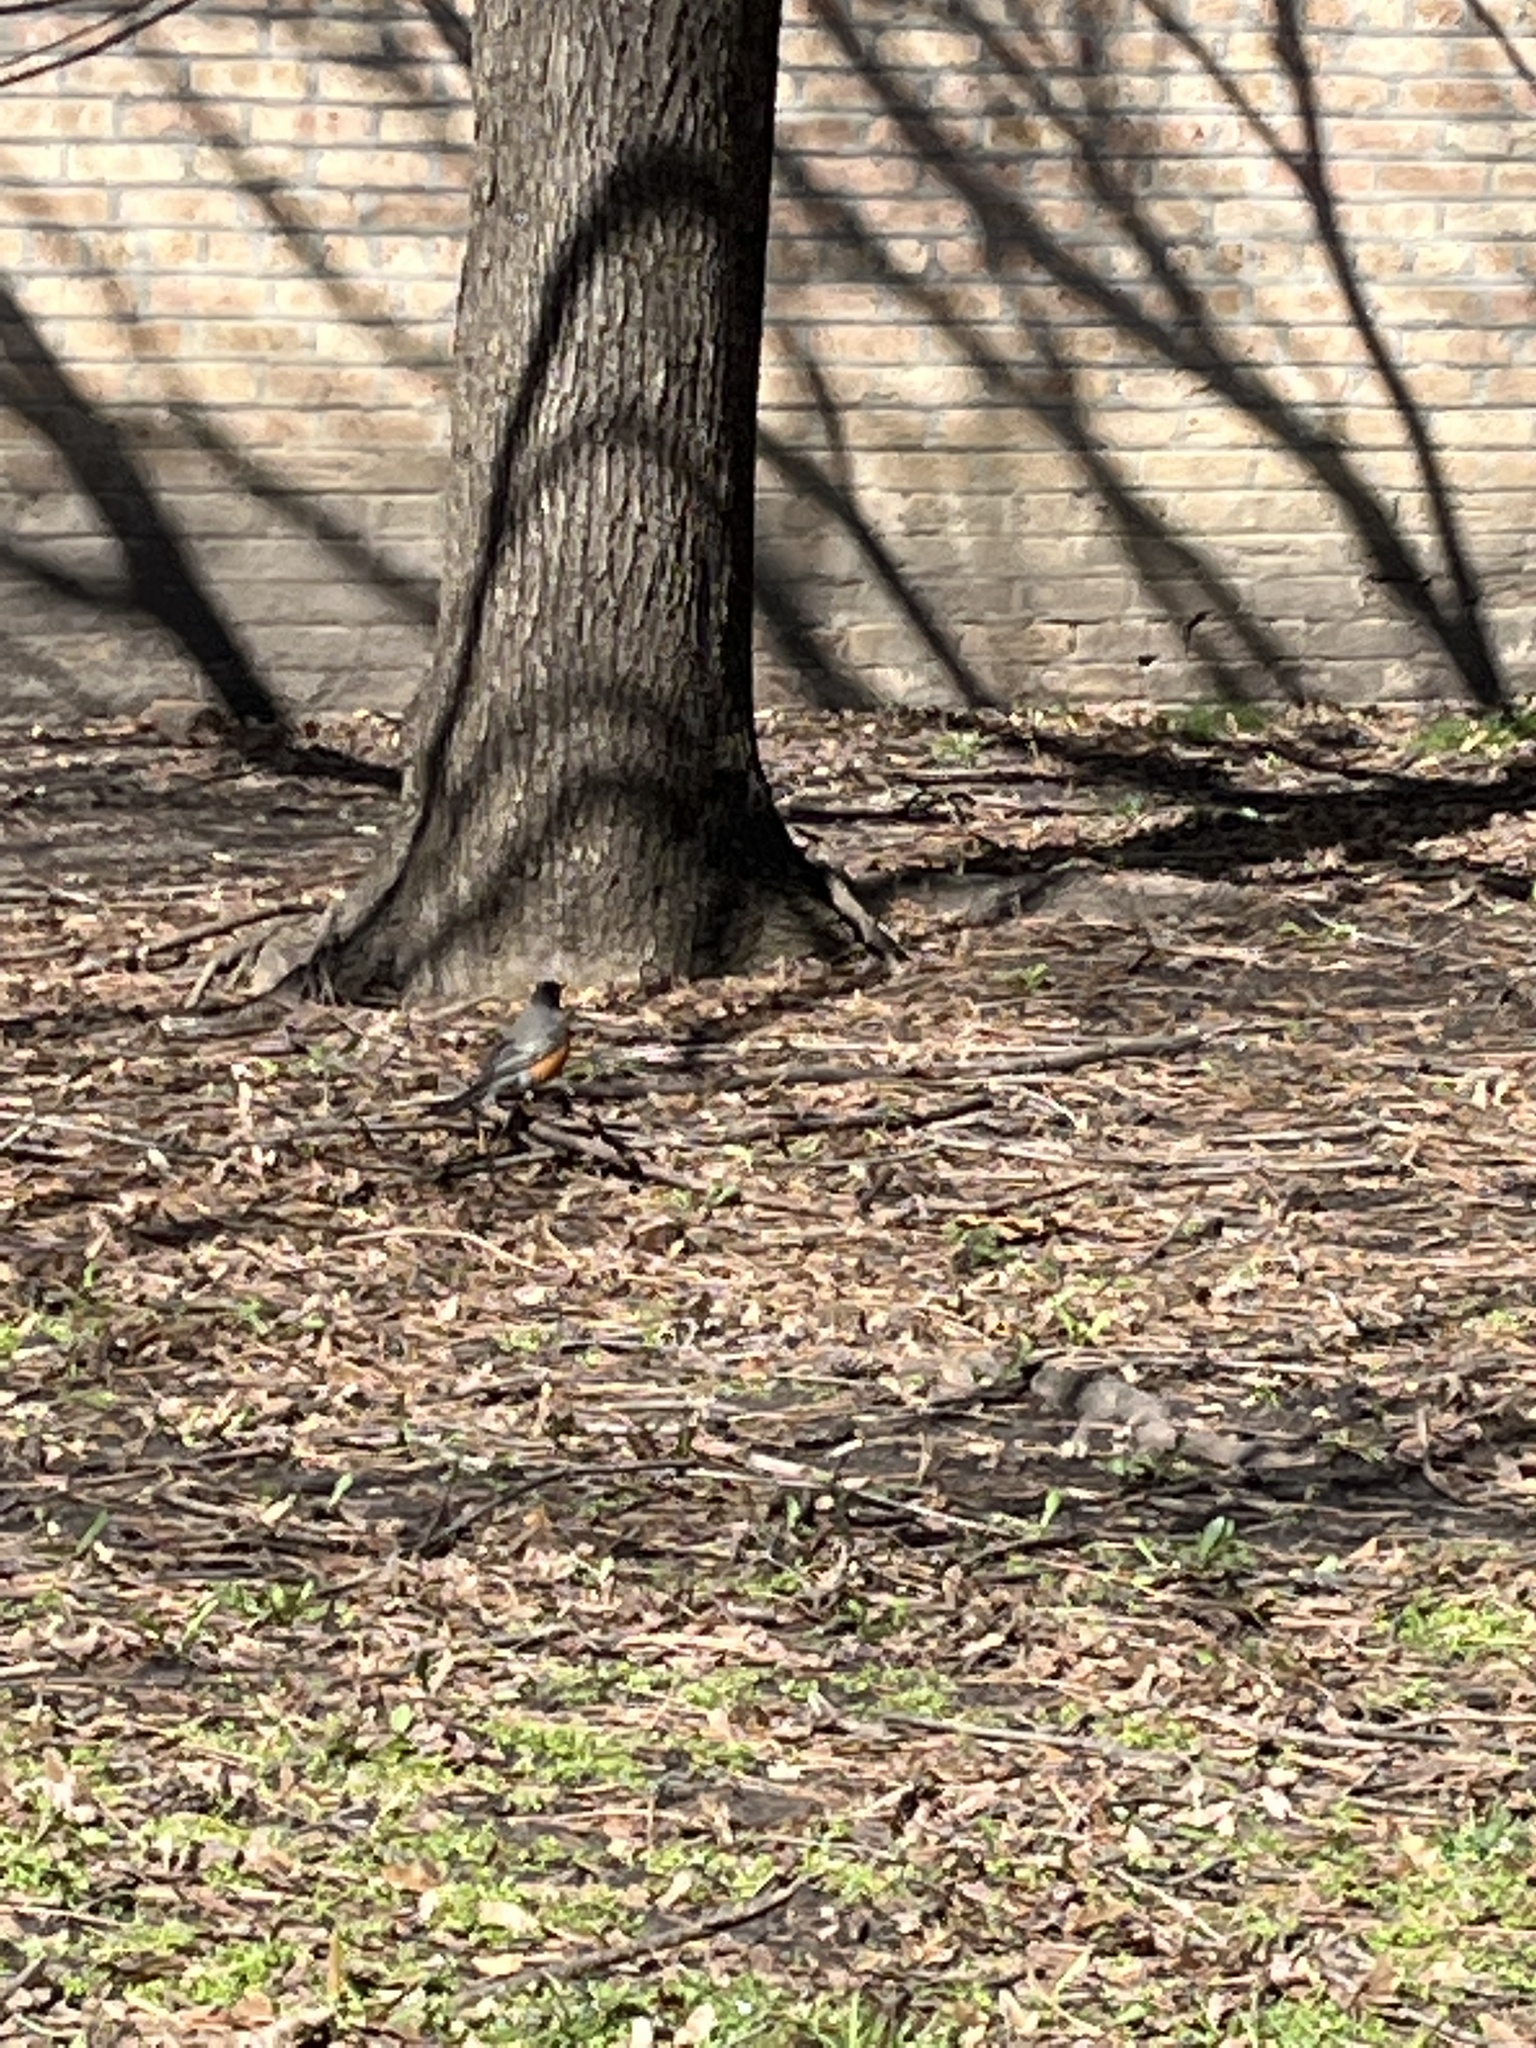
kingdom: Animalia
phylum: Chordata
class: Aves
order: Passeriformes
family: Turdidae
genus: Turdus
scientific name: Turdus migratorius
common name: American robin
